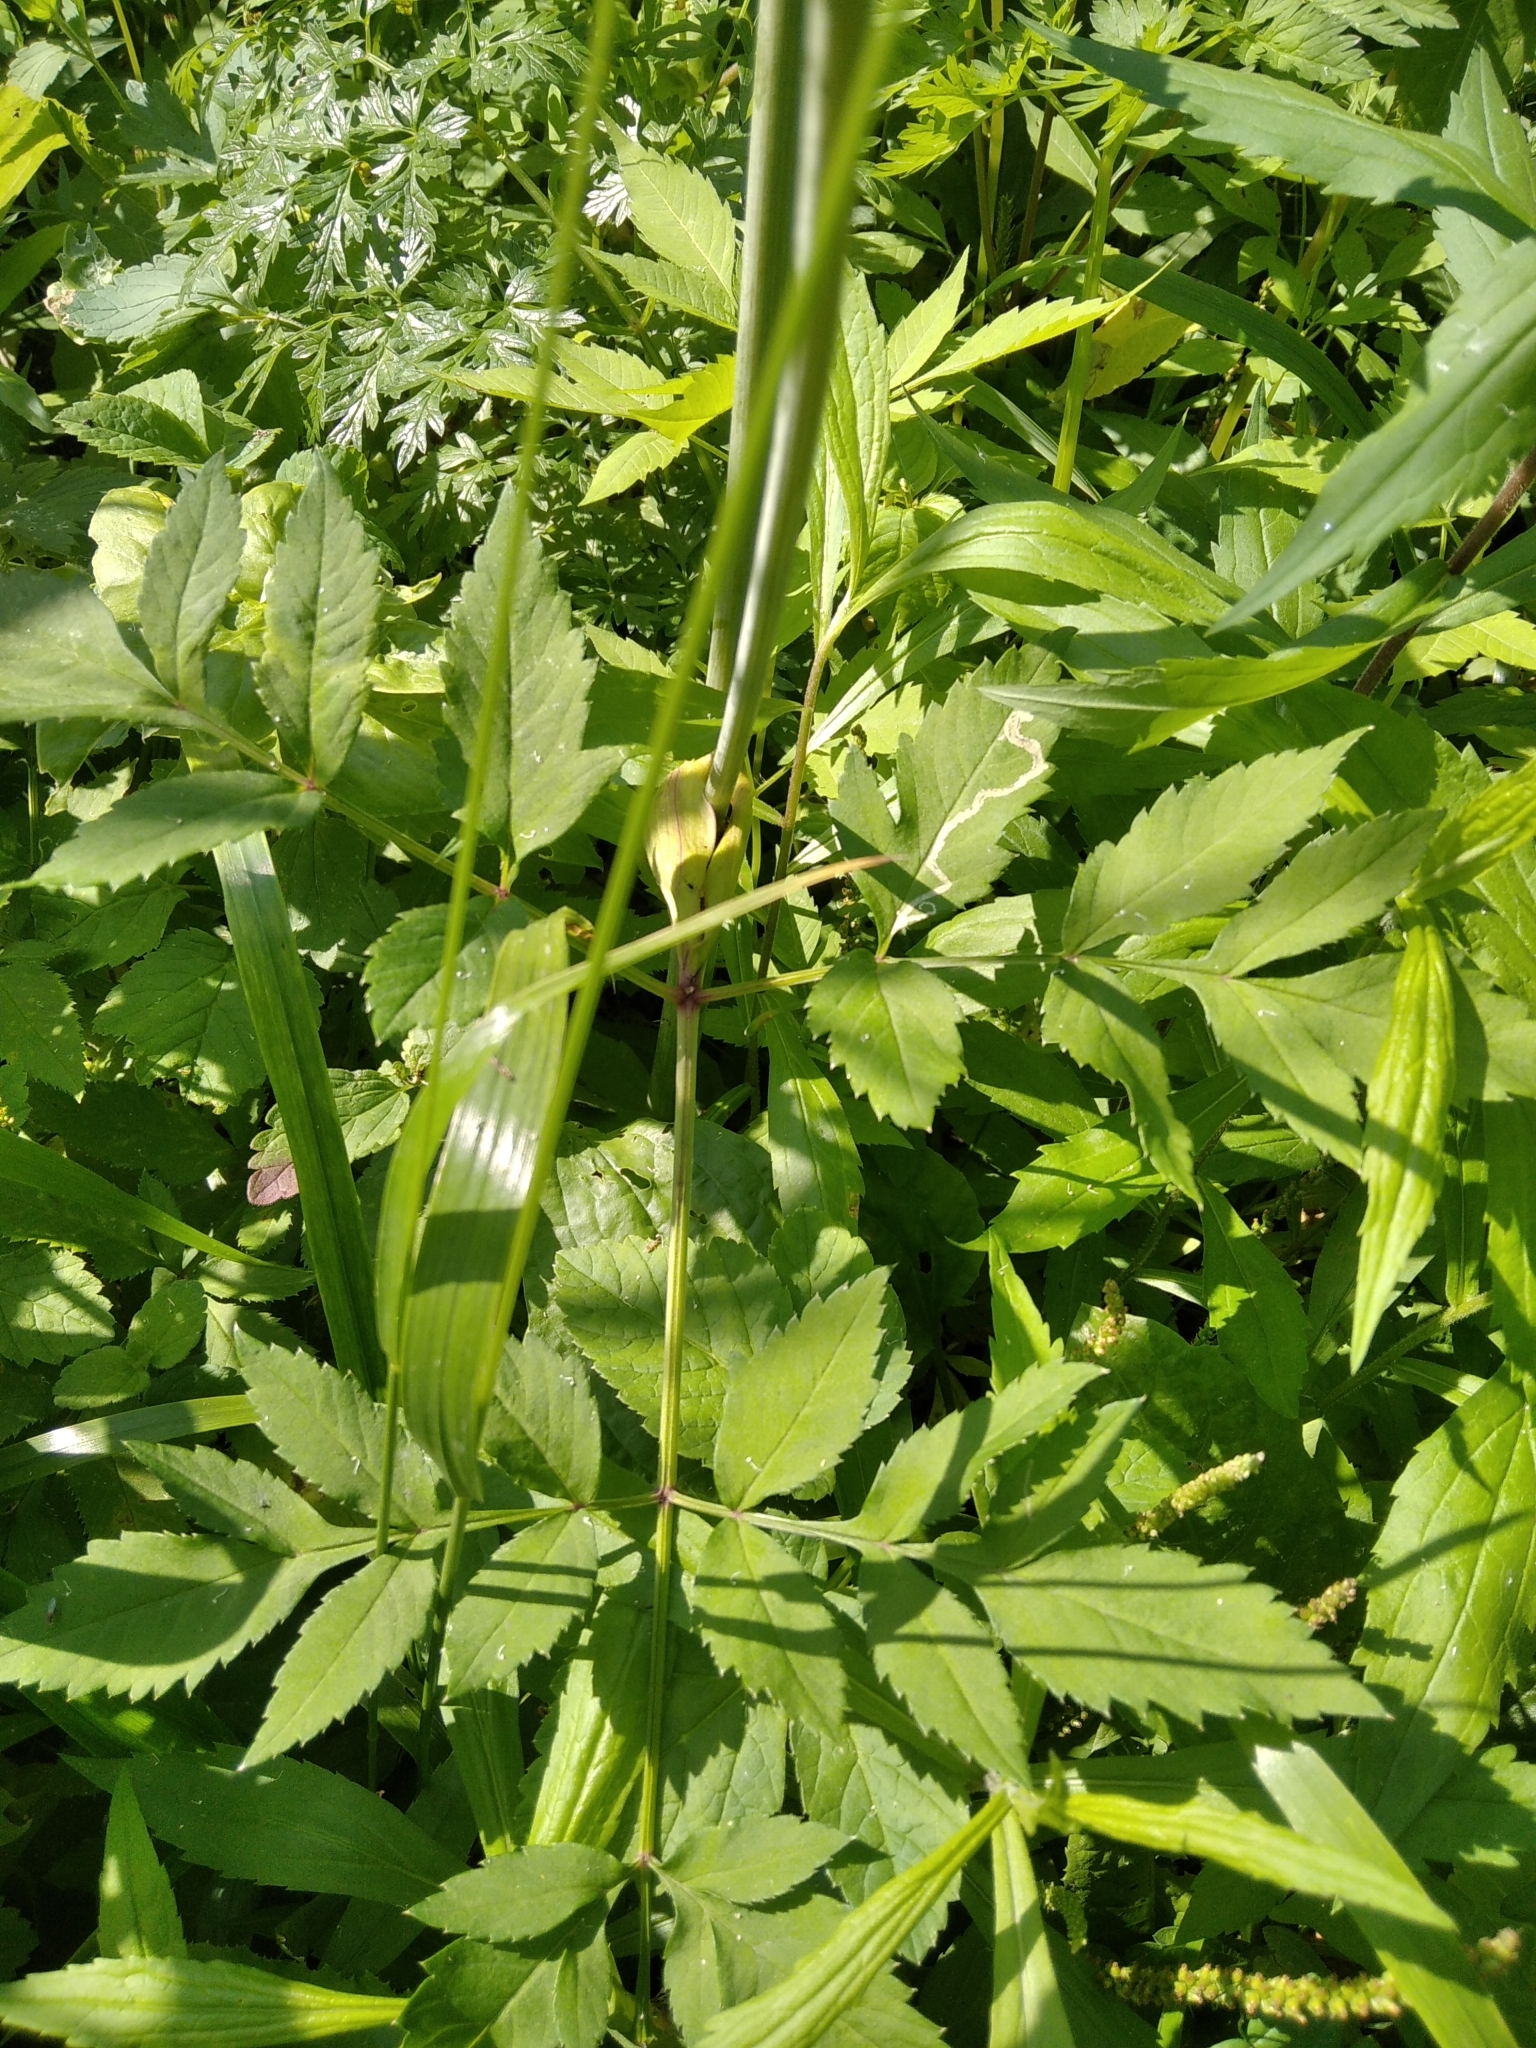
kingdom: Plantae
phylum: Tracheophyta
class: Magnoliopsida
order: Apiales
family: Apiaceae
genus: Angelica
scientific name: Angelica sylvestris
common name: Wild angelica
